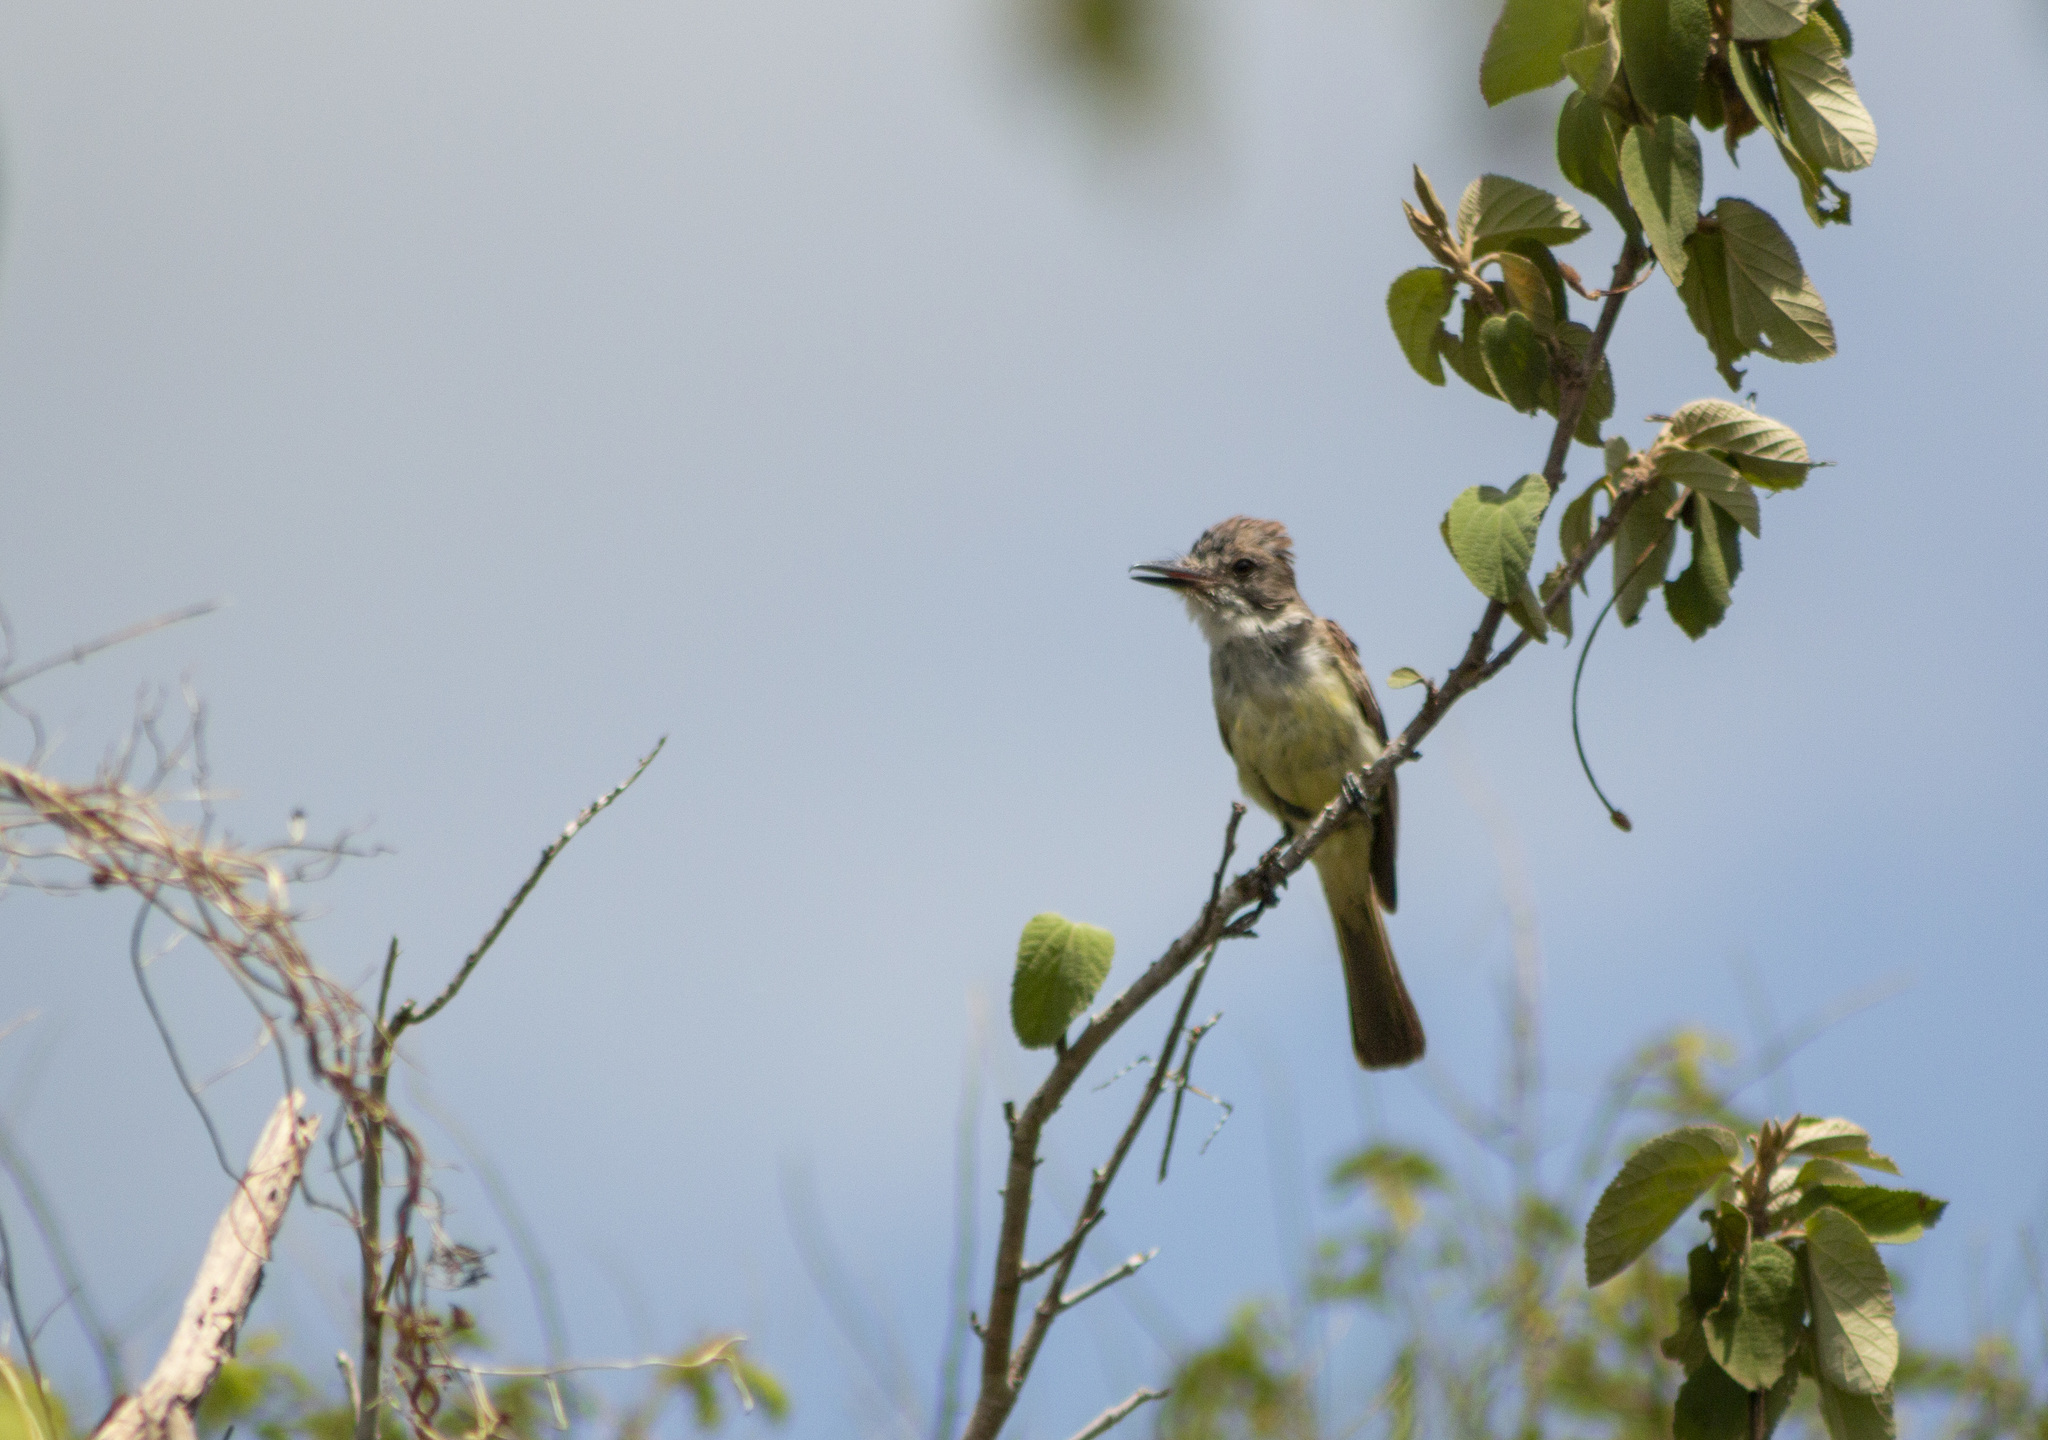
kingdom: Animalia
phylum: Chordata
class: Aves
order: Passeriformes
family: Tyrannidae
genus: Myiarchus
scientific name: Myiarchus tyrannulus
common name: Brown-crested flycatcher
